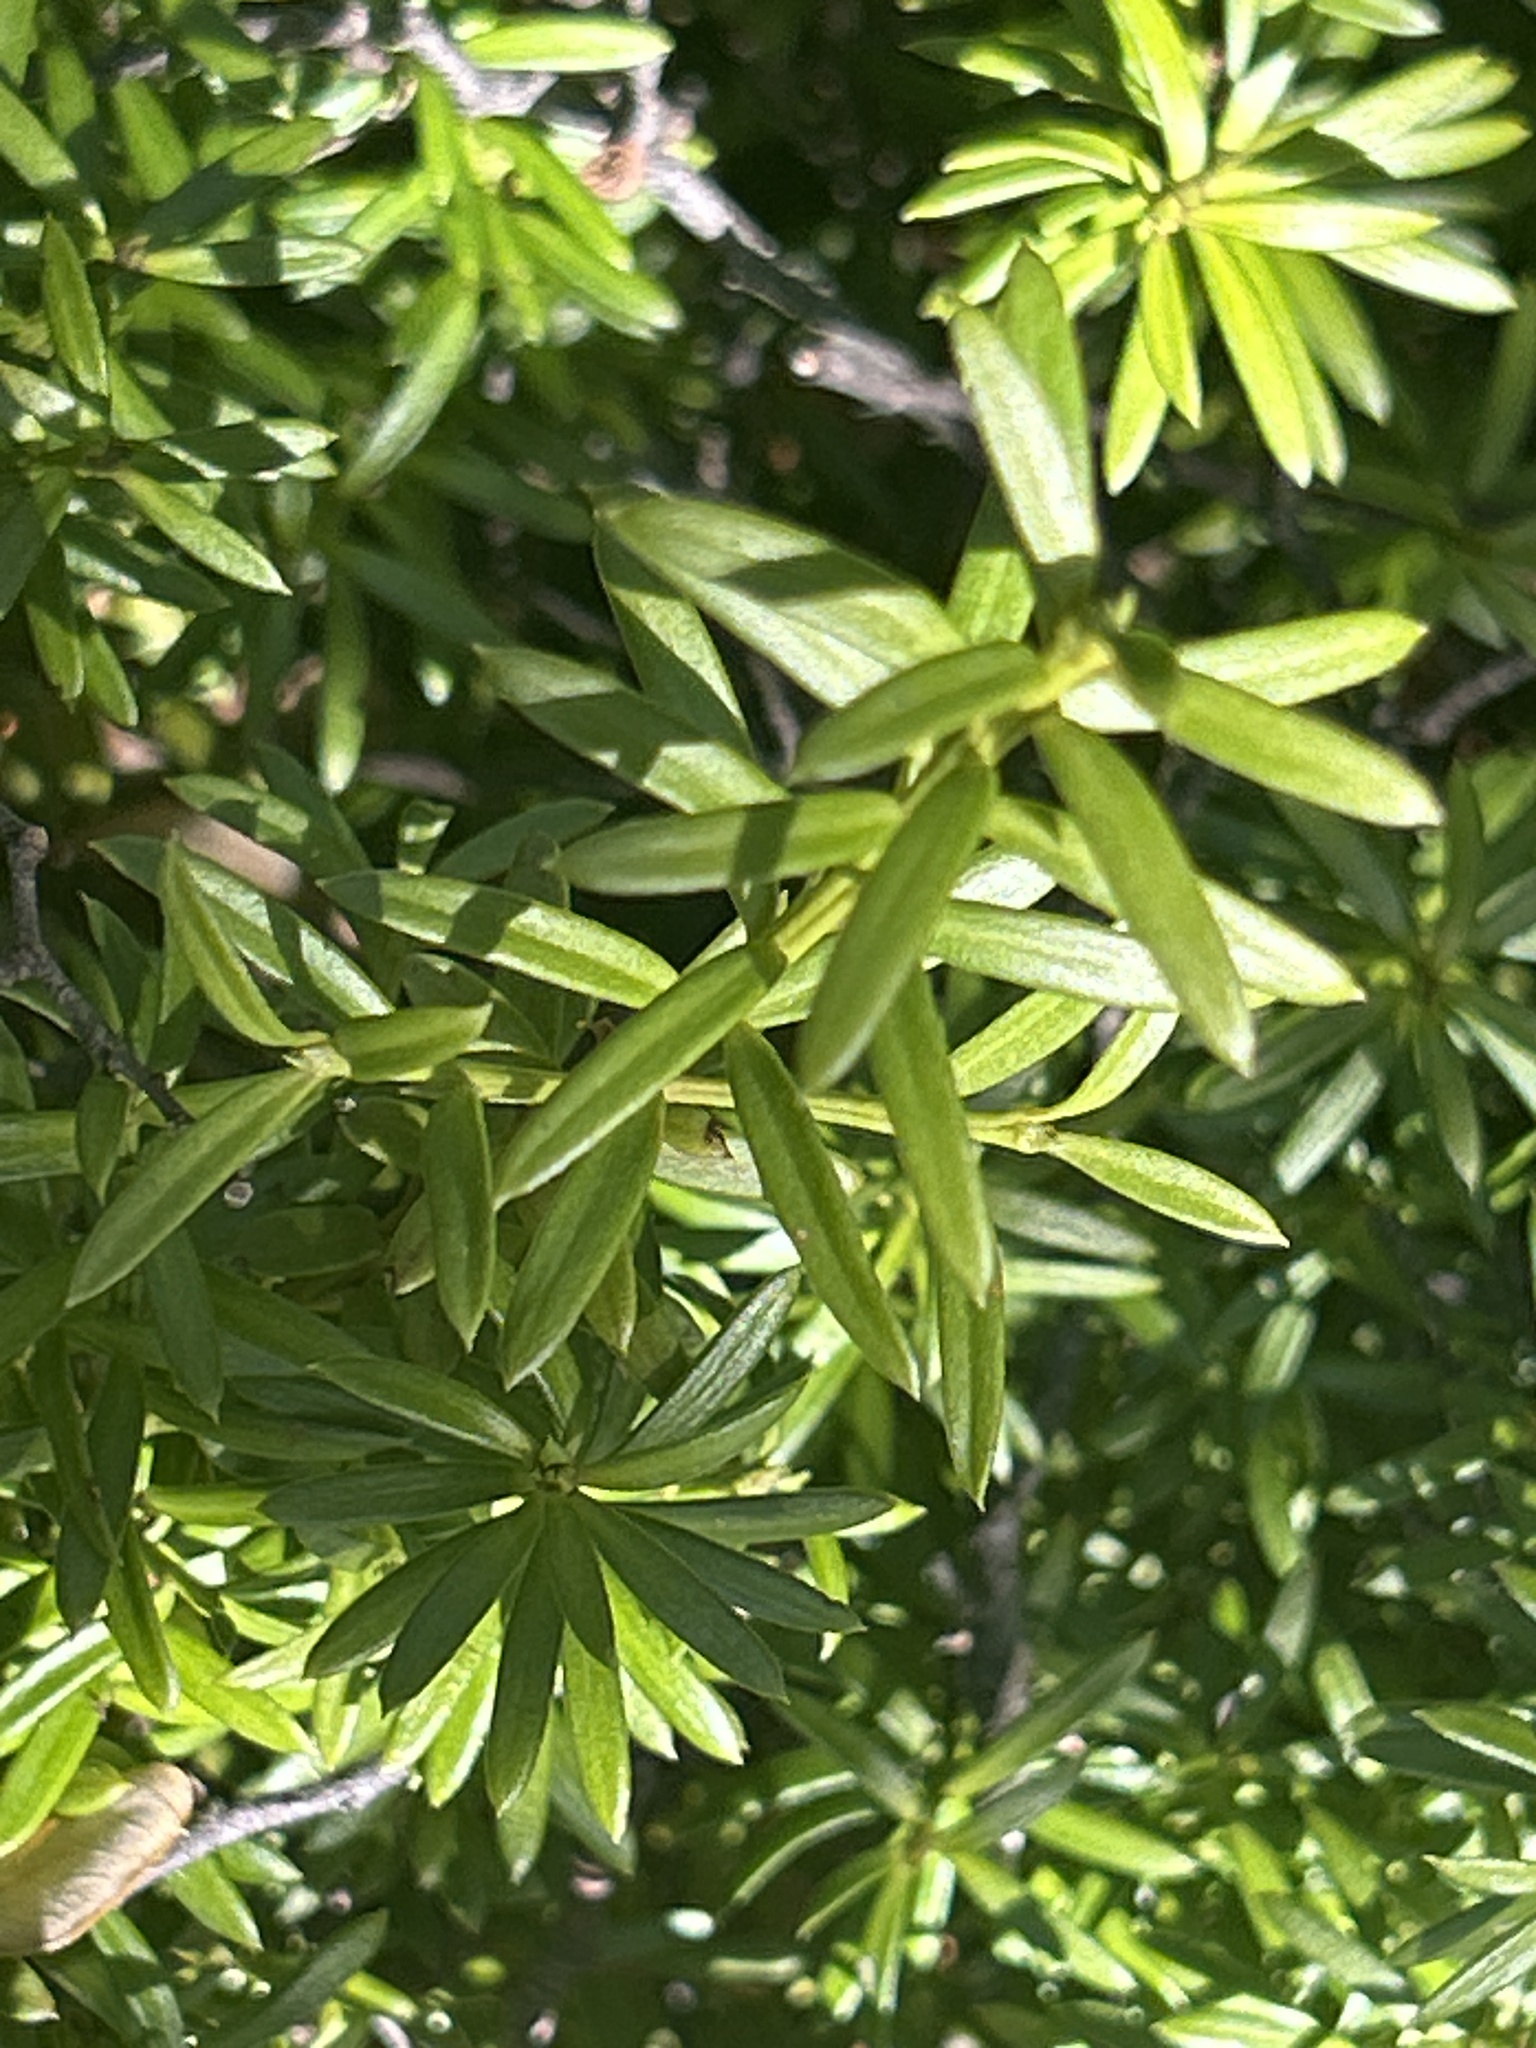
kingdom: Plantae
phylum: Tracheophyta
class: Pinopsida
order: Pinales
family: Podocarpaceae
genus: Podocarpus
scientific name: Podocarpus nivalis
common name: Alpine totara
